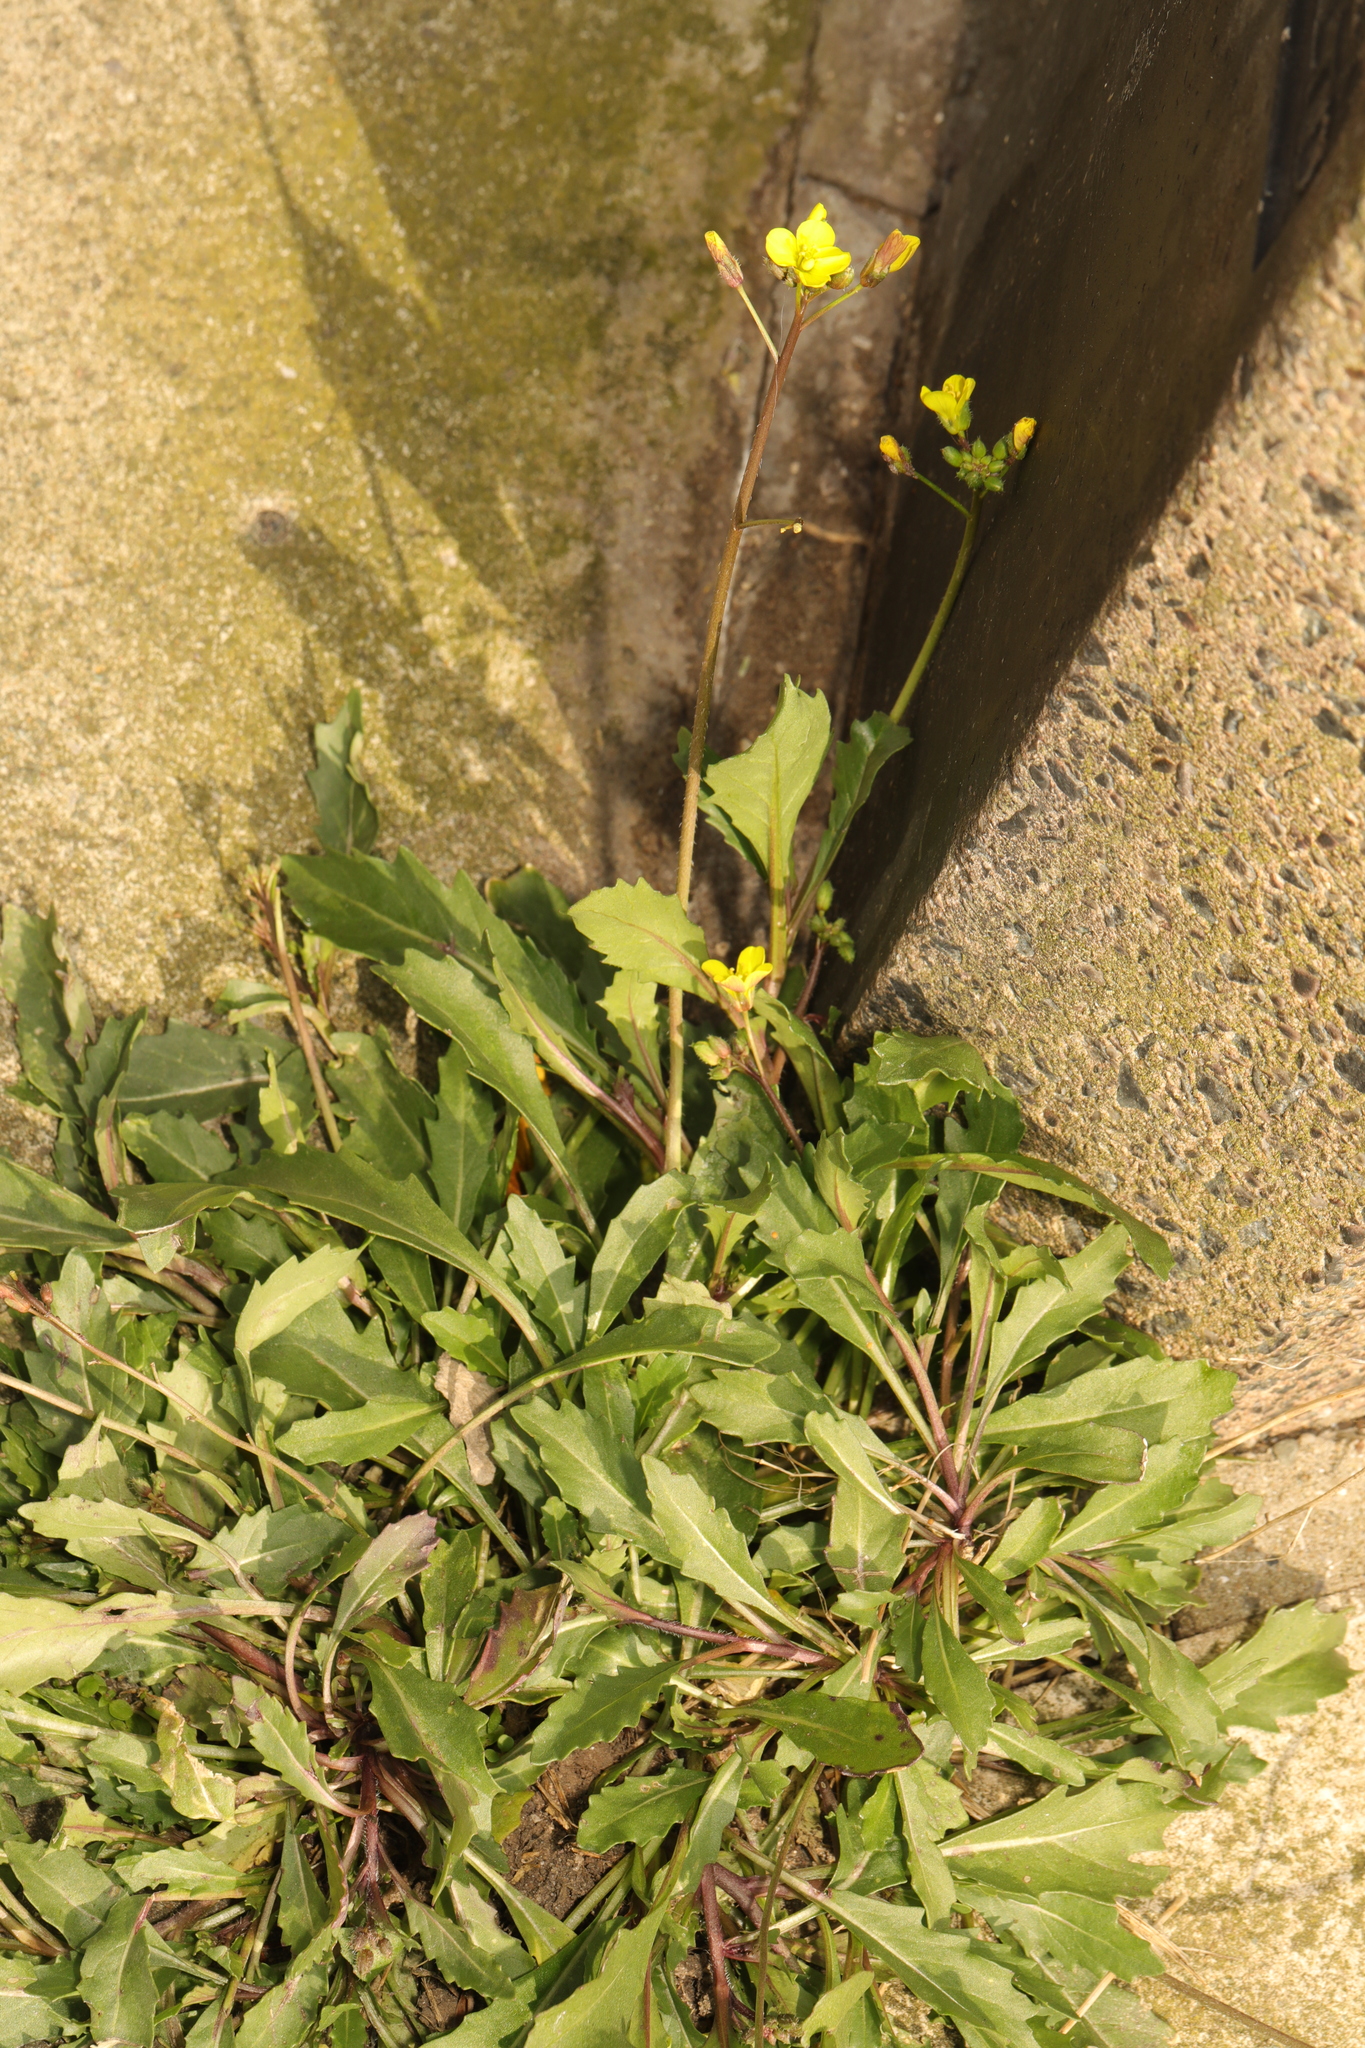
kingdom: Plantae
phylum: Tracheophyta
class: Magnoliopsida
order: Brassicales
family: Brassicaceae
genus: Diplotaxis
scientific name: Diplotaxis muralis
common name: Annual wall-rocket
